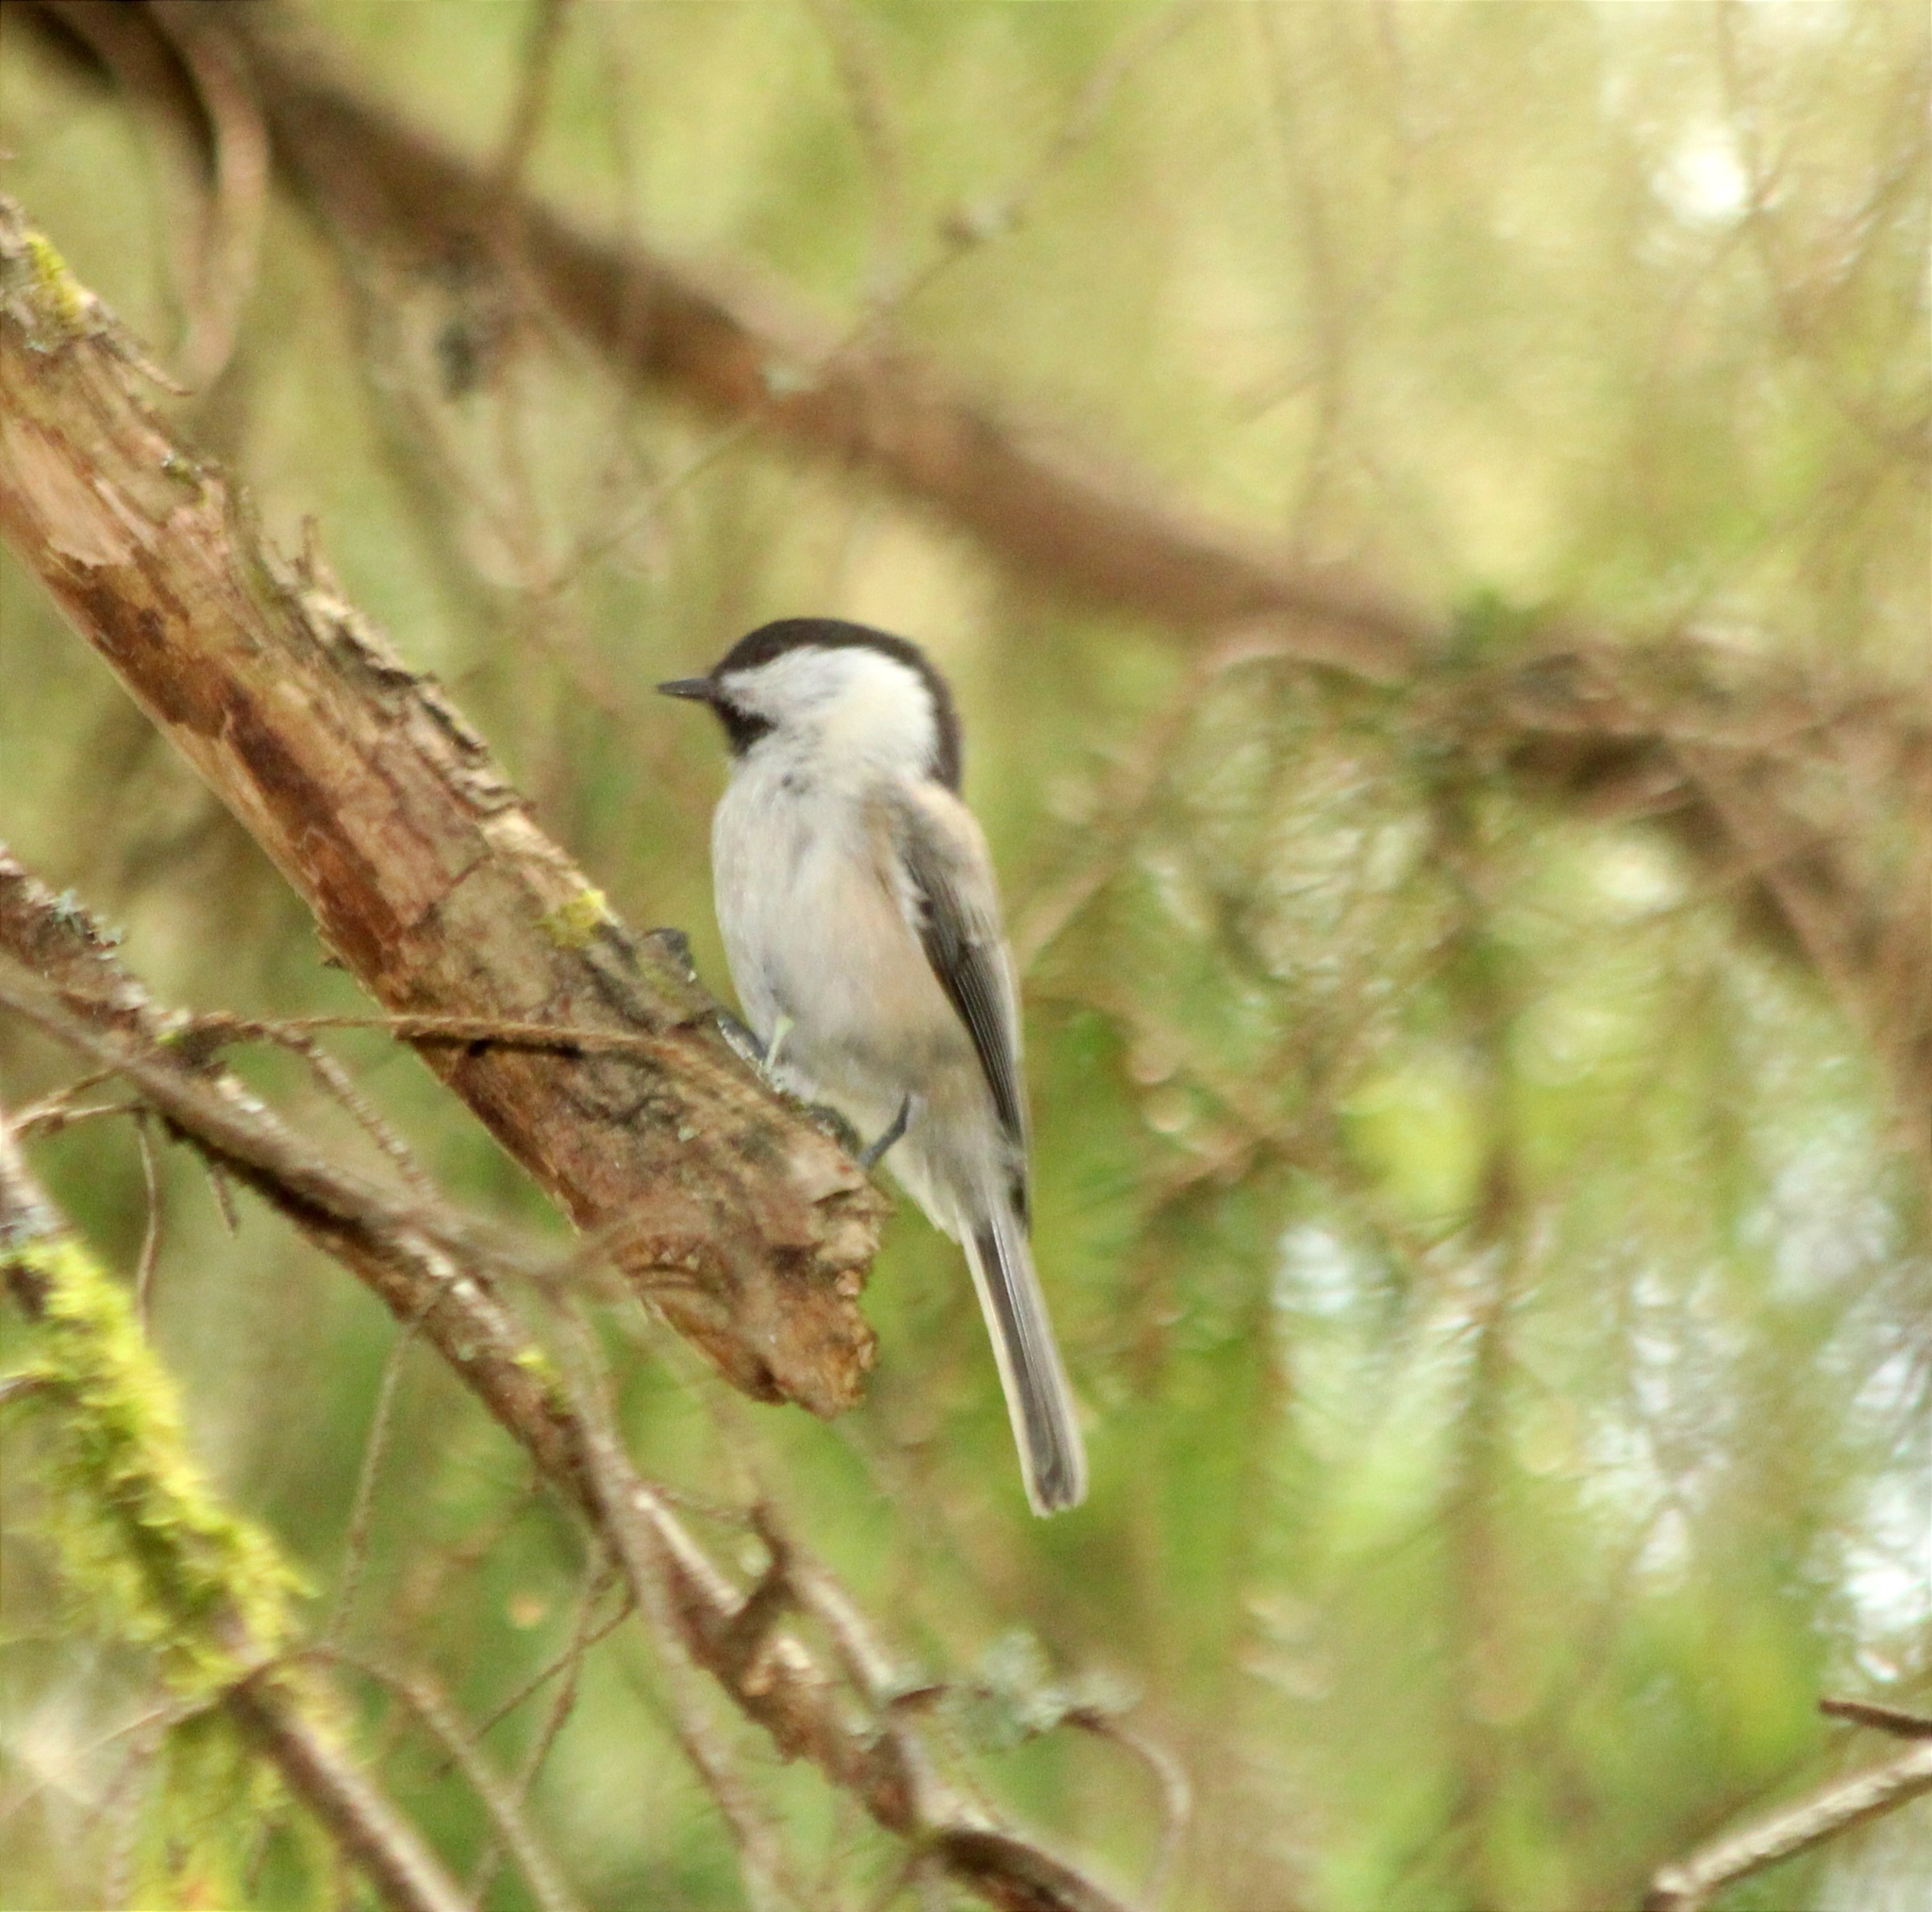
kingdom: Animalia
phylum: Chordata
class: Aves
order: Passeriformes
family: Paridae
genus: Poecile
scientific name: Poecile montanus
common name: Willow tit
